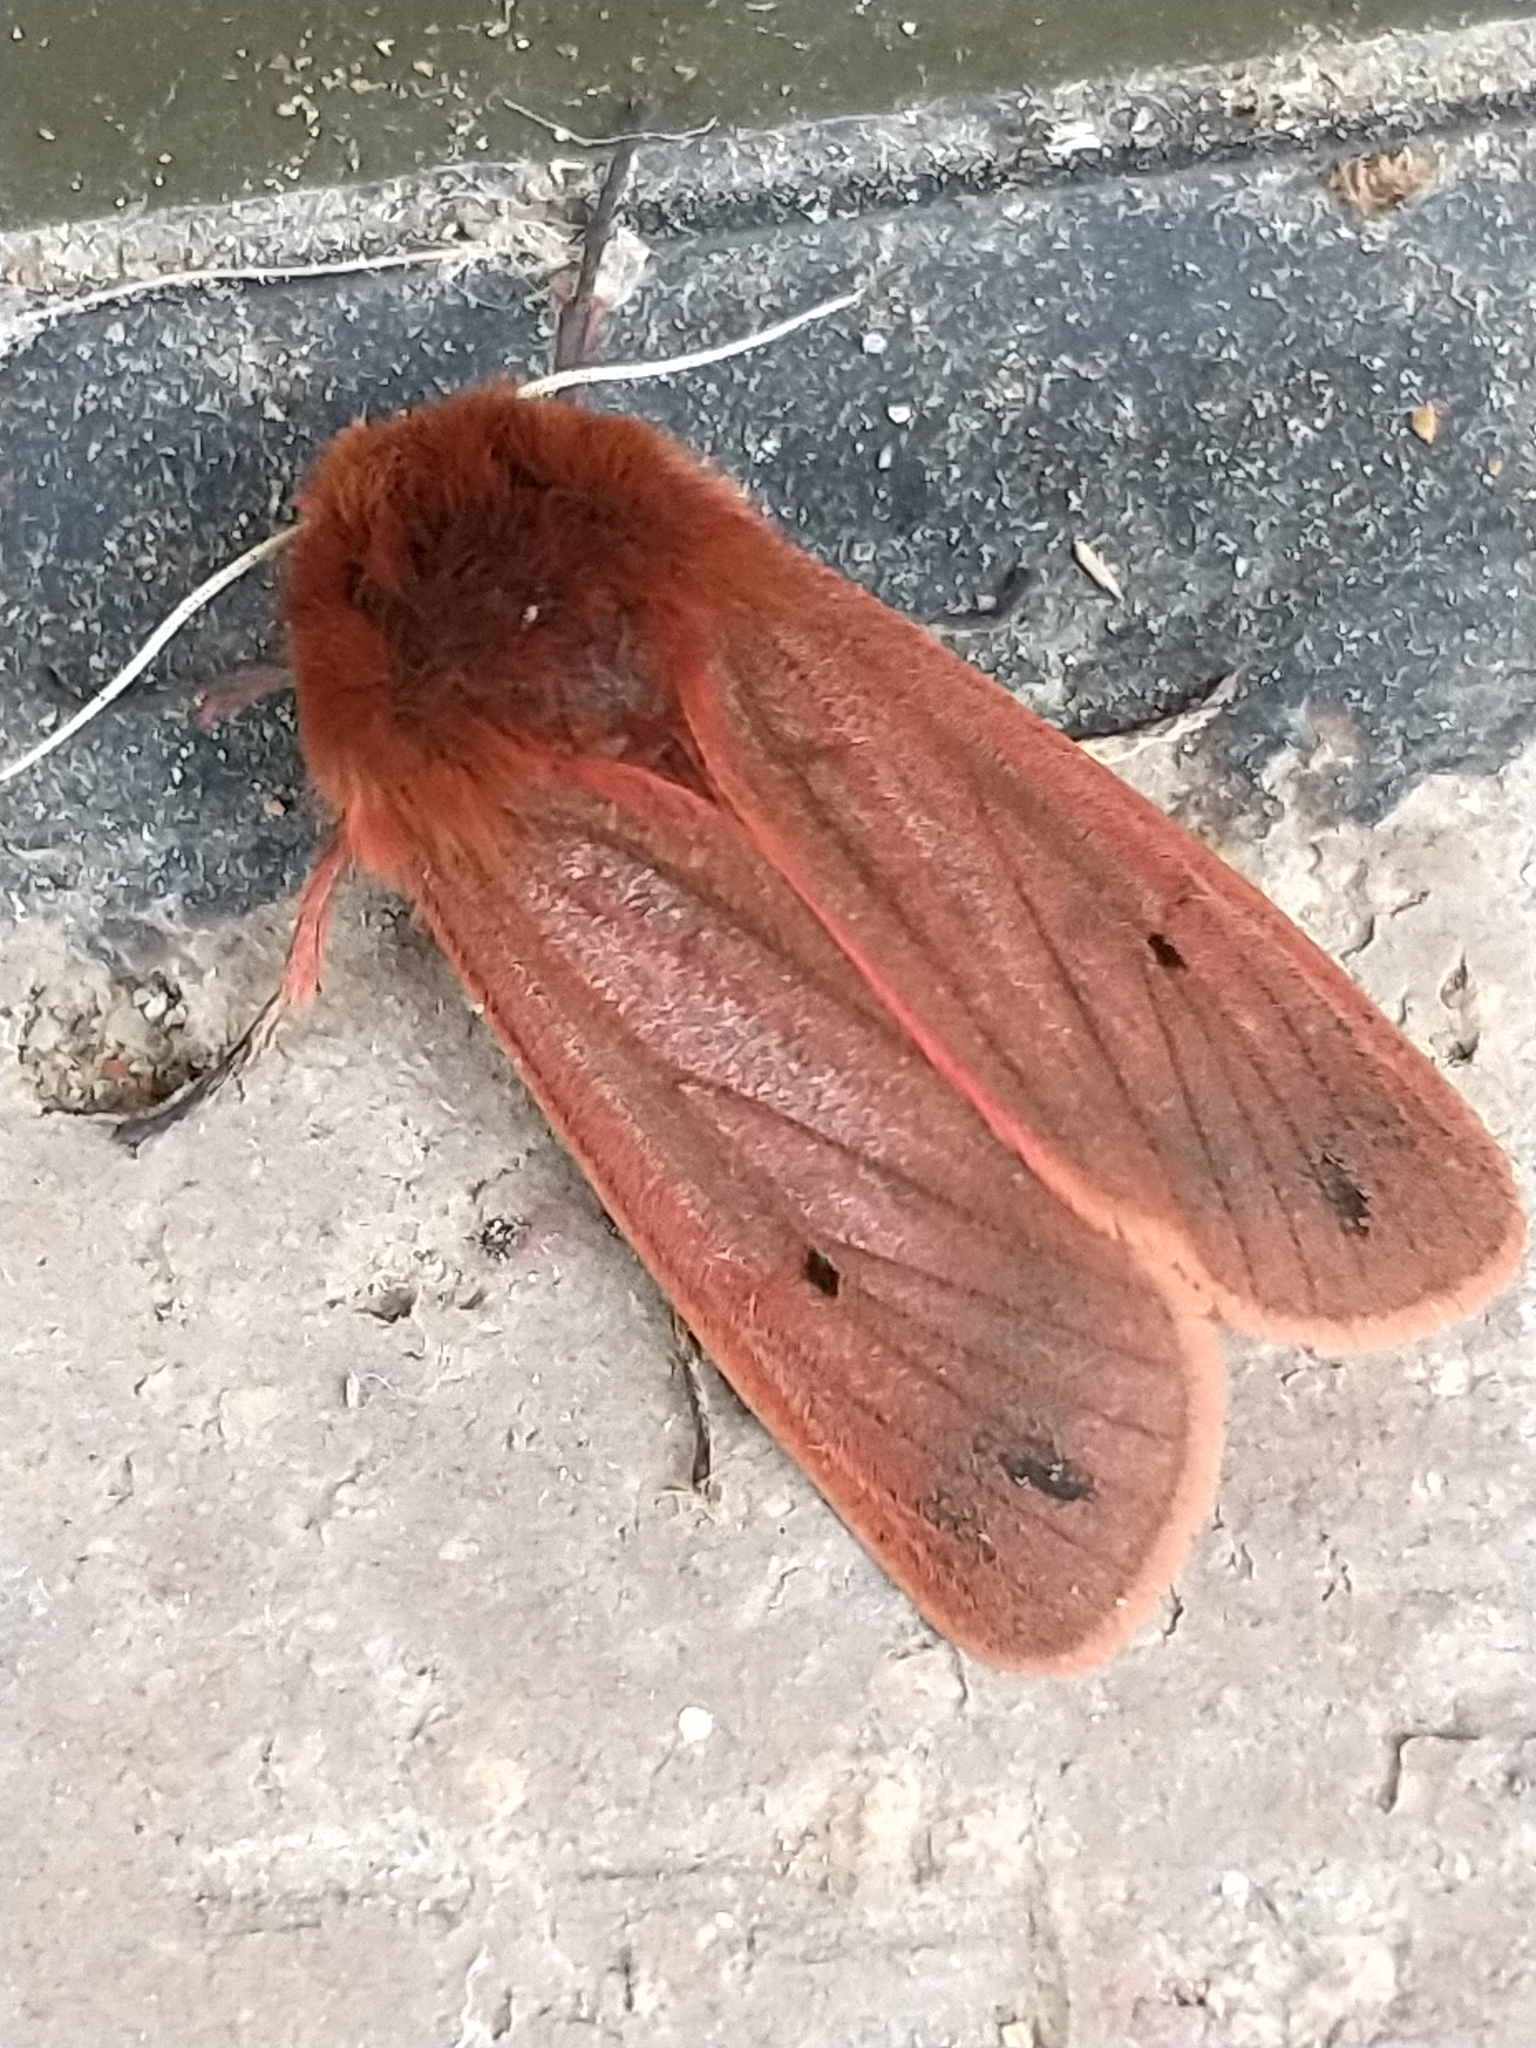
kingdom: Animalia
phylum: Arthropoda
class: Insecta
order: Lepidoptera
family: Erebidae
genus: Phragmatobia
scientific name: Phragmatobia fuliginosa
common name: Ruby tiger
